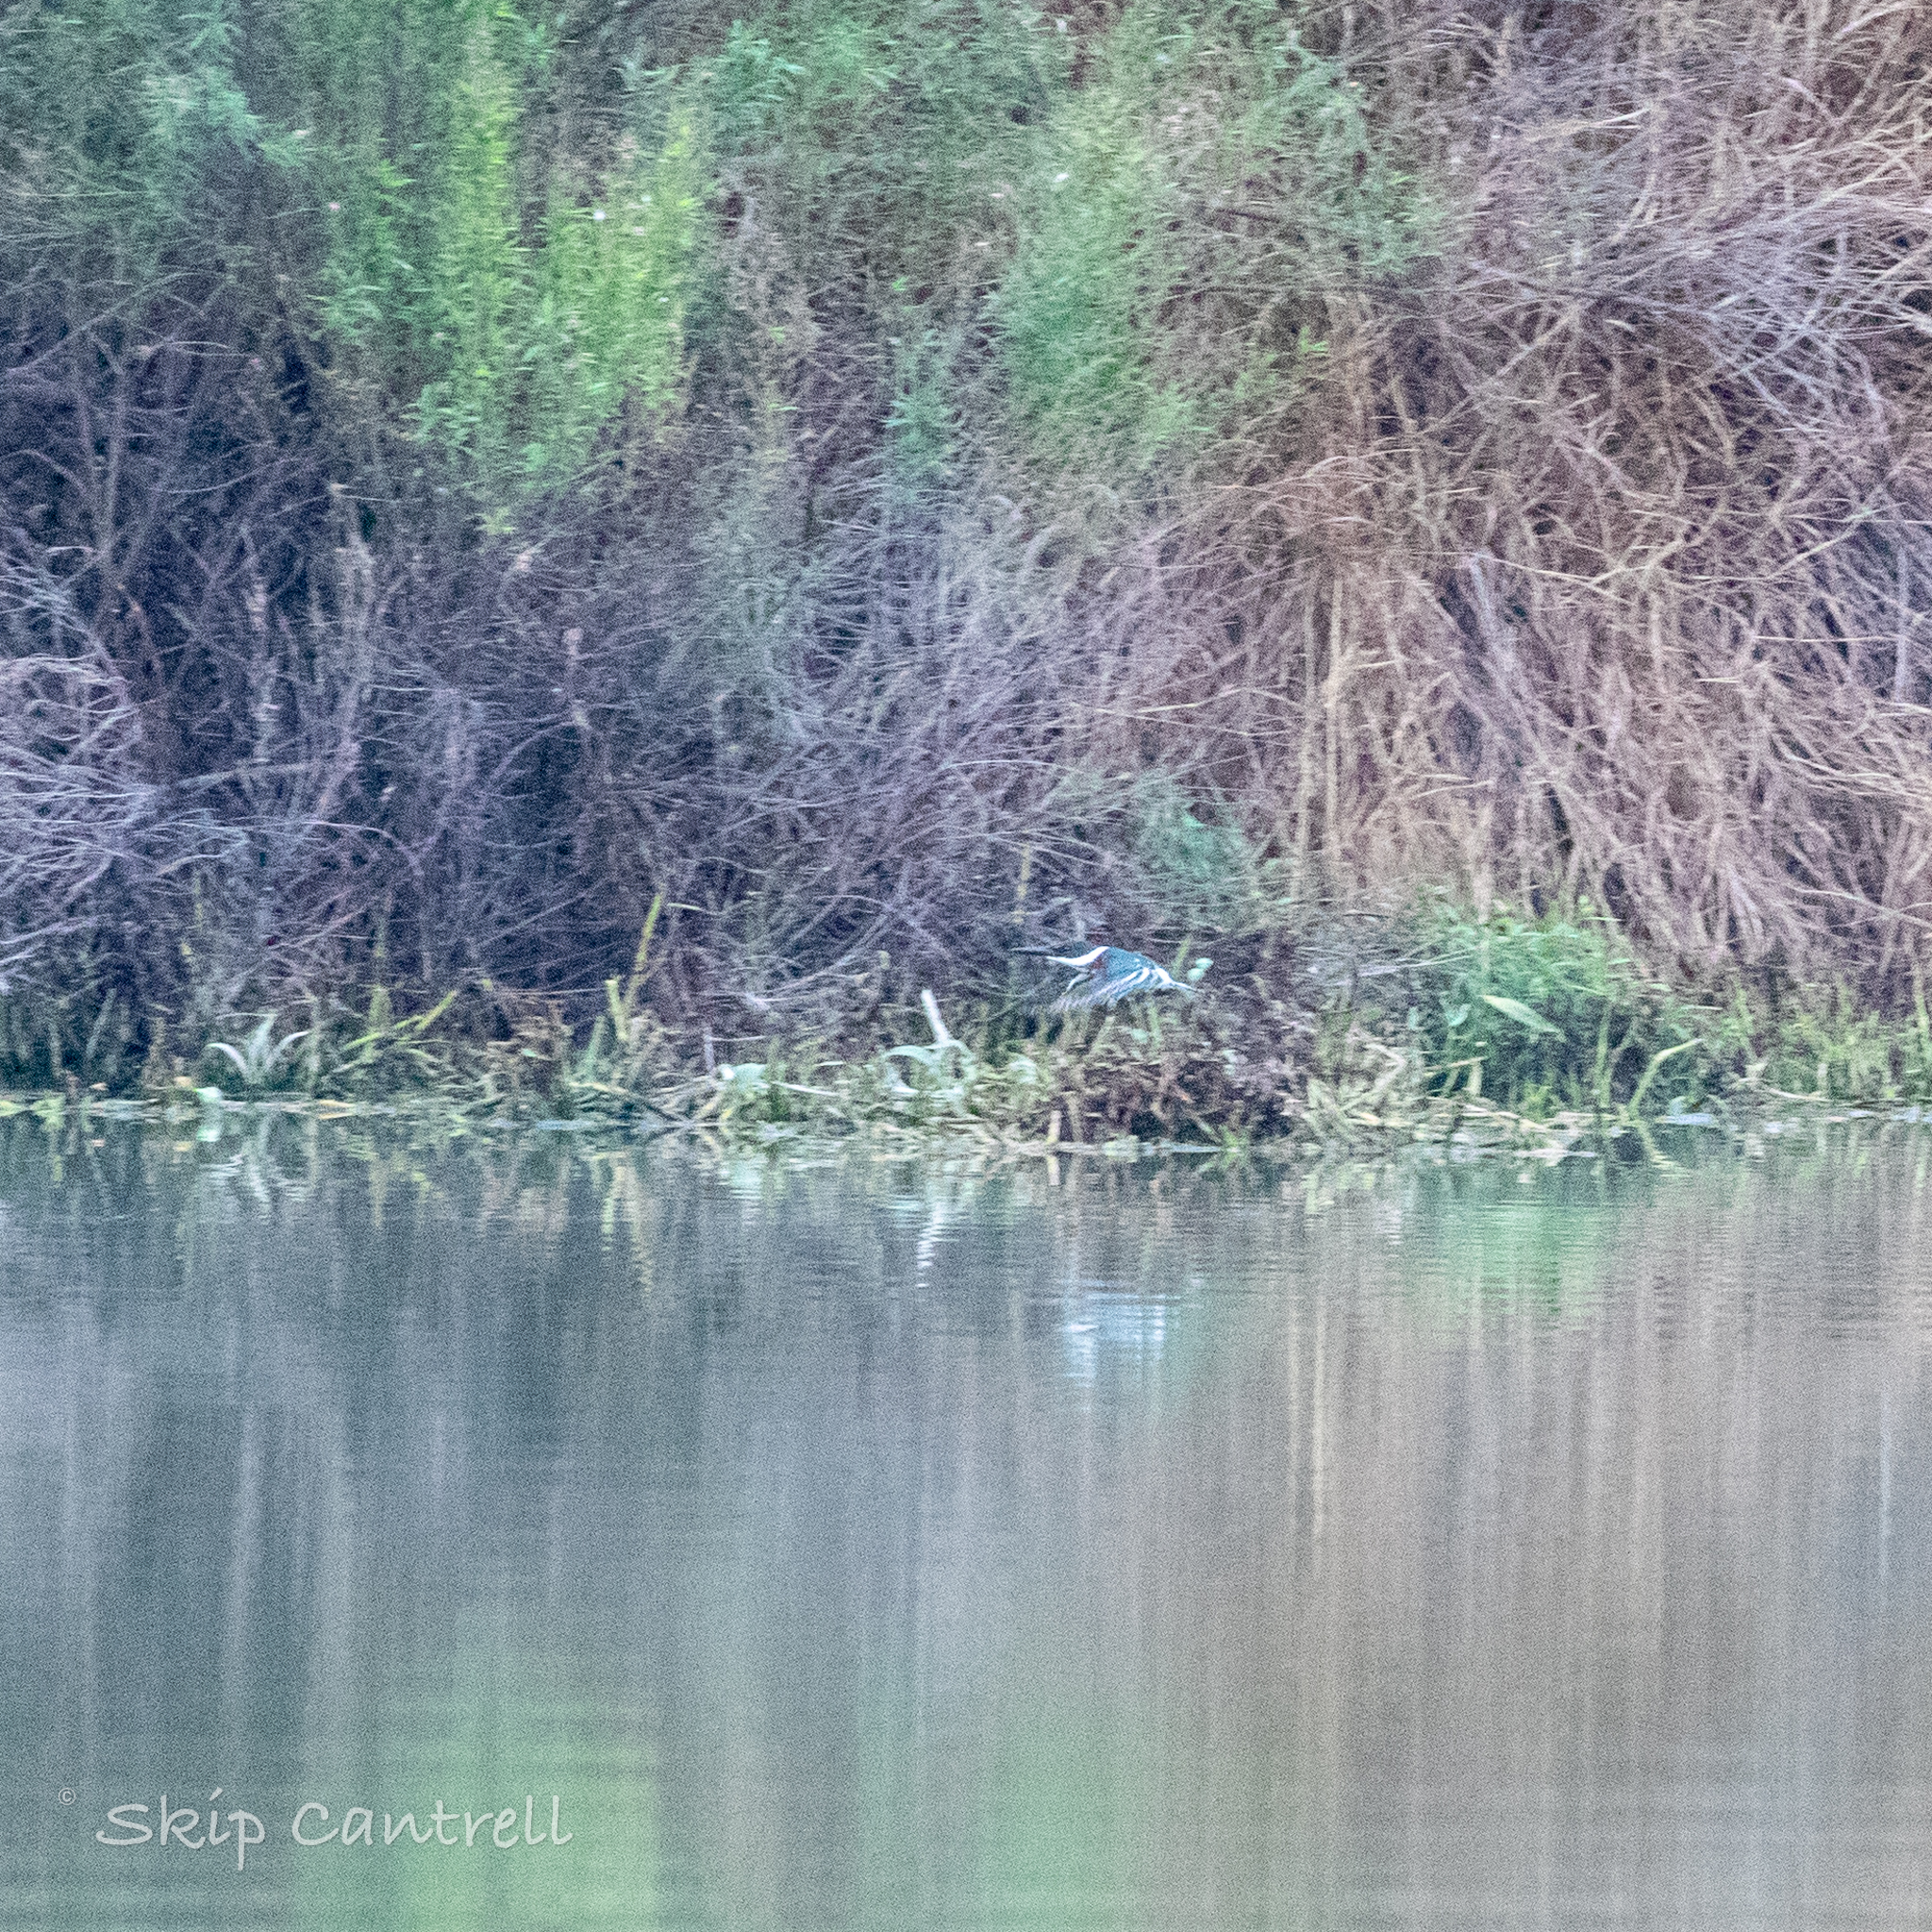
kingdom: Animalia
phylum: Chordata
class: Aves
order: Coraciiformes
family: Alcedinidae
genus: Chloroceryle
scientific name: Chloroceryle americana
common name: Green kingfisher
